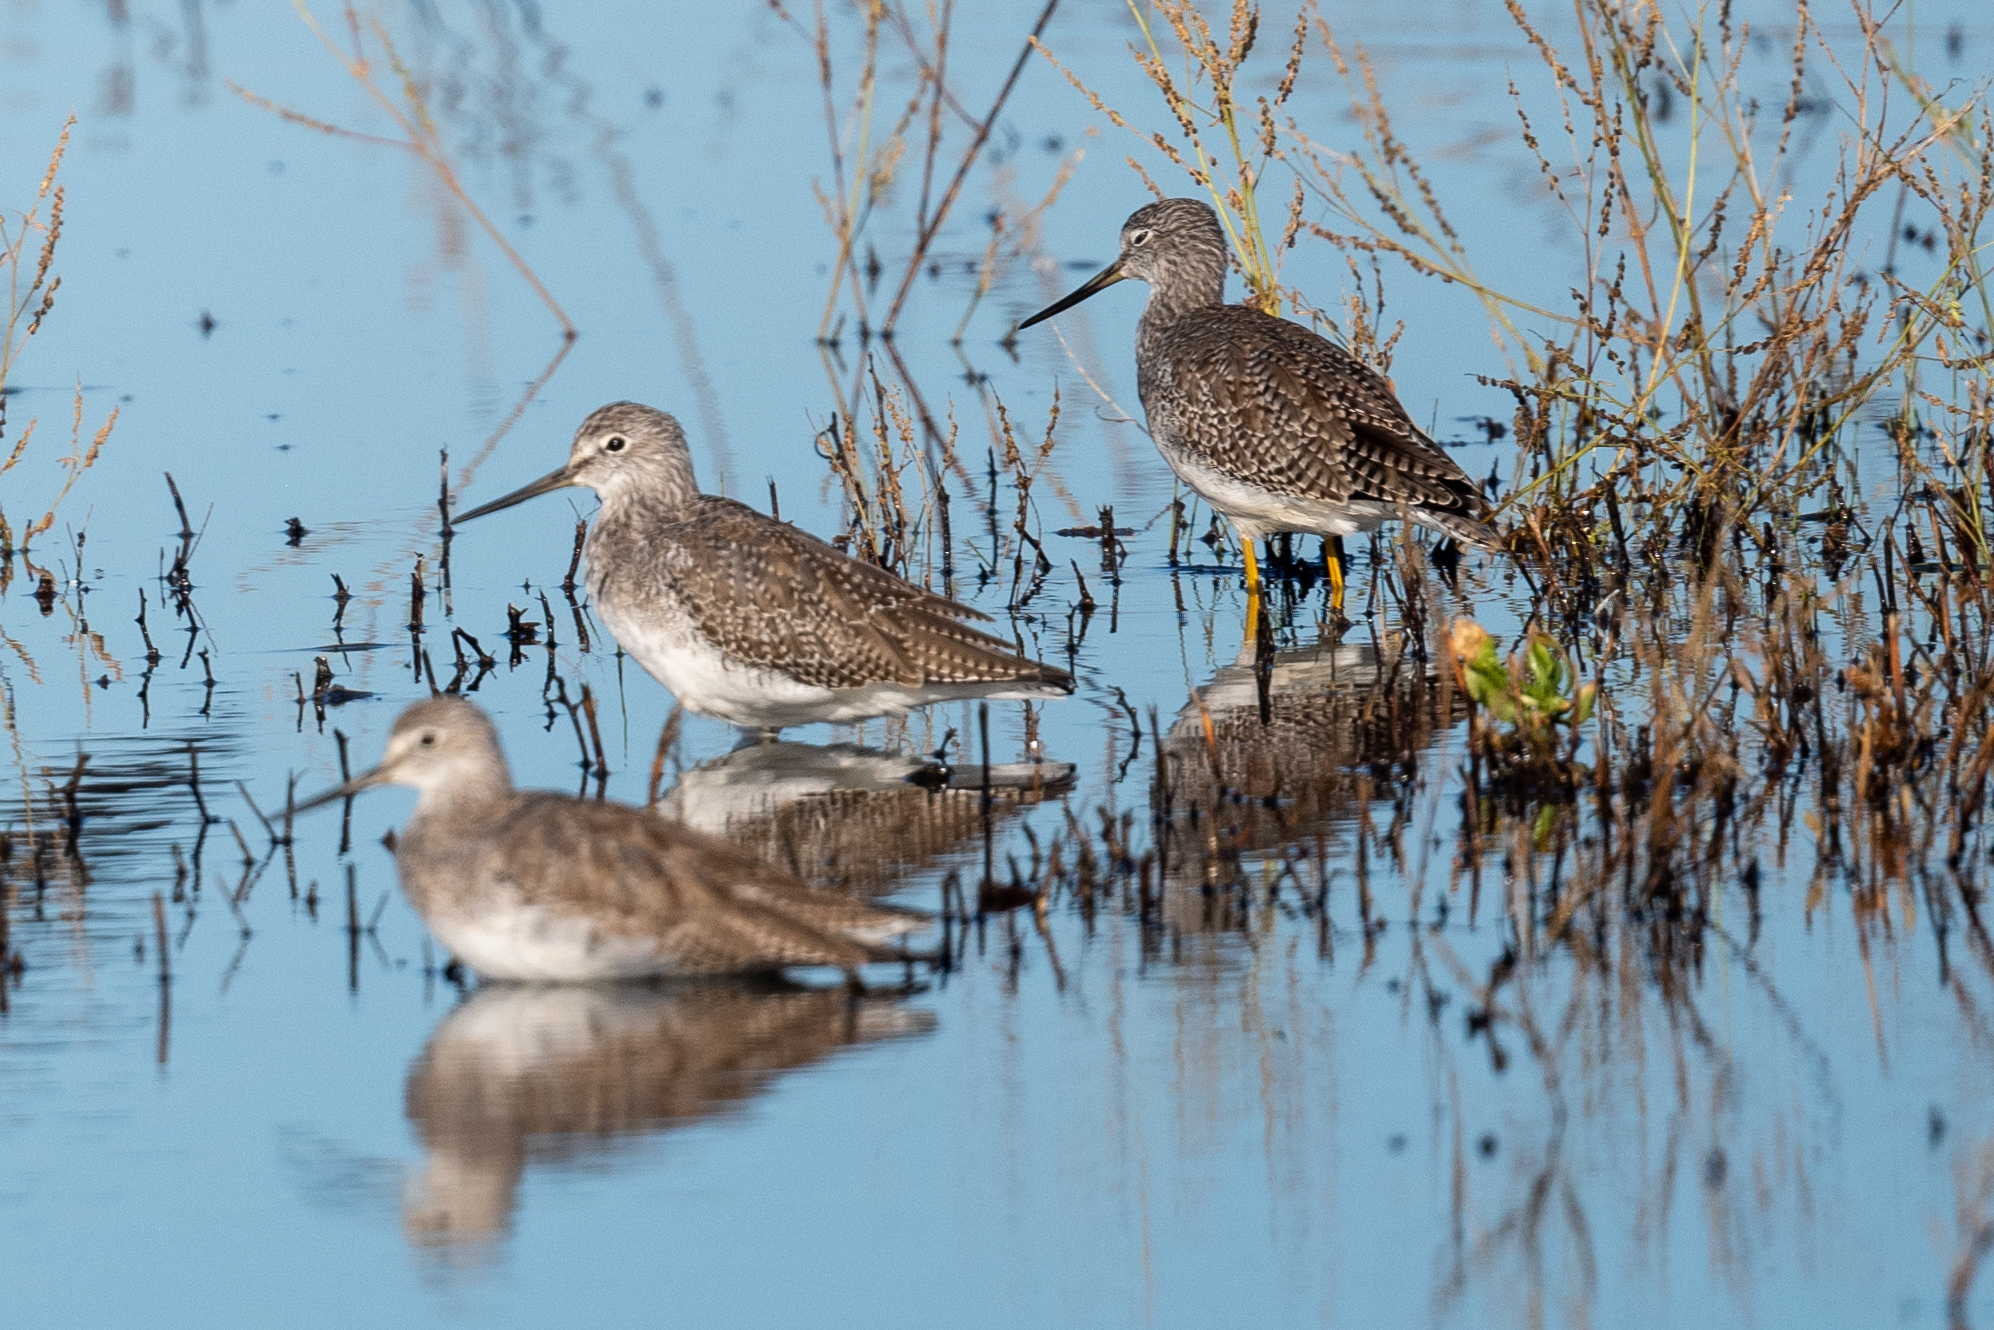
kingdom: Animalia
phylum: Chordata
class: Aves
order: Charadriiformes
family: Scolopacidae
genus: Tringa
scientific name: Tringa melanoleuca
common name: Greater yellowlegs
